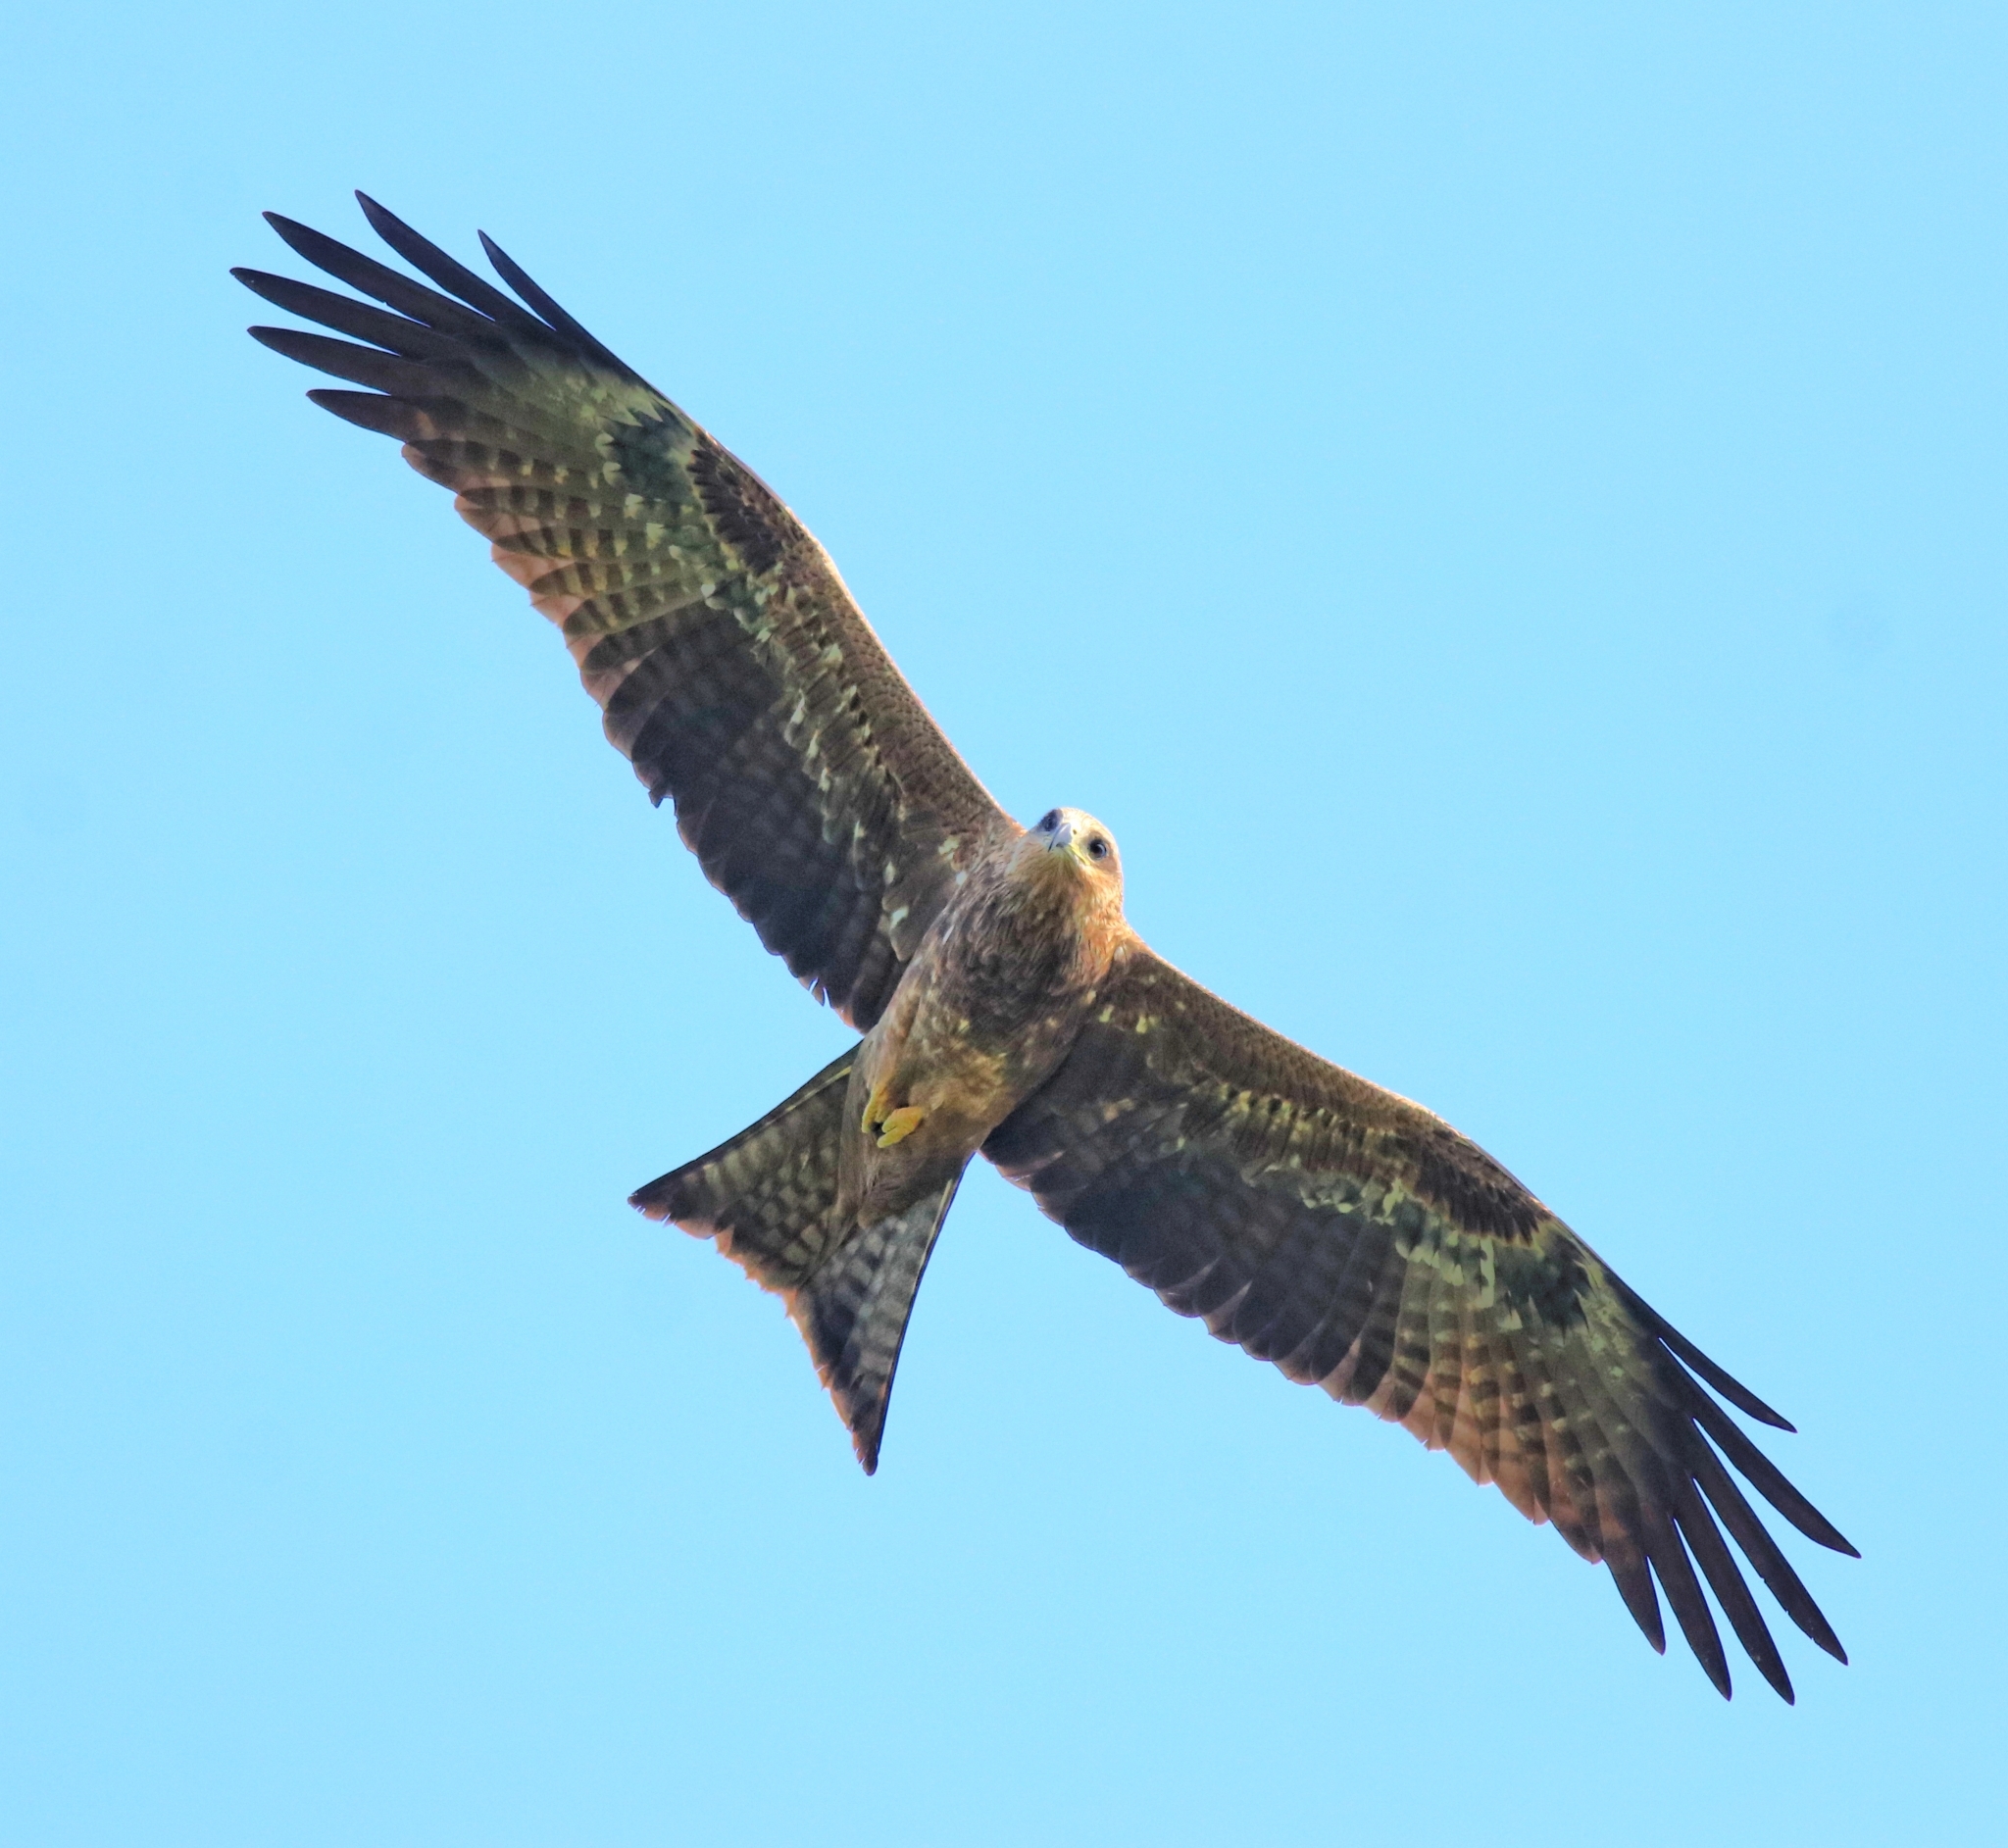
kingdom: Animalia
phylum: Chordata
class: Aves
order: Accipitriformes
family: Accipitridae
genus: Milvus
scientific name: Milvus migrans
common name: Black kite
